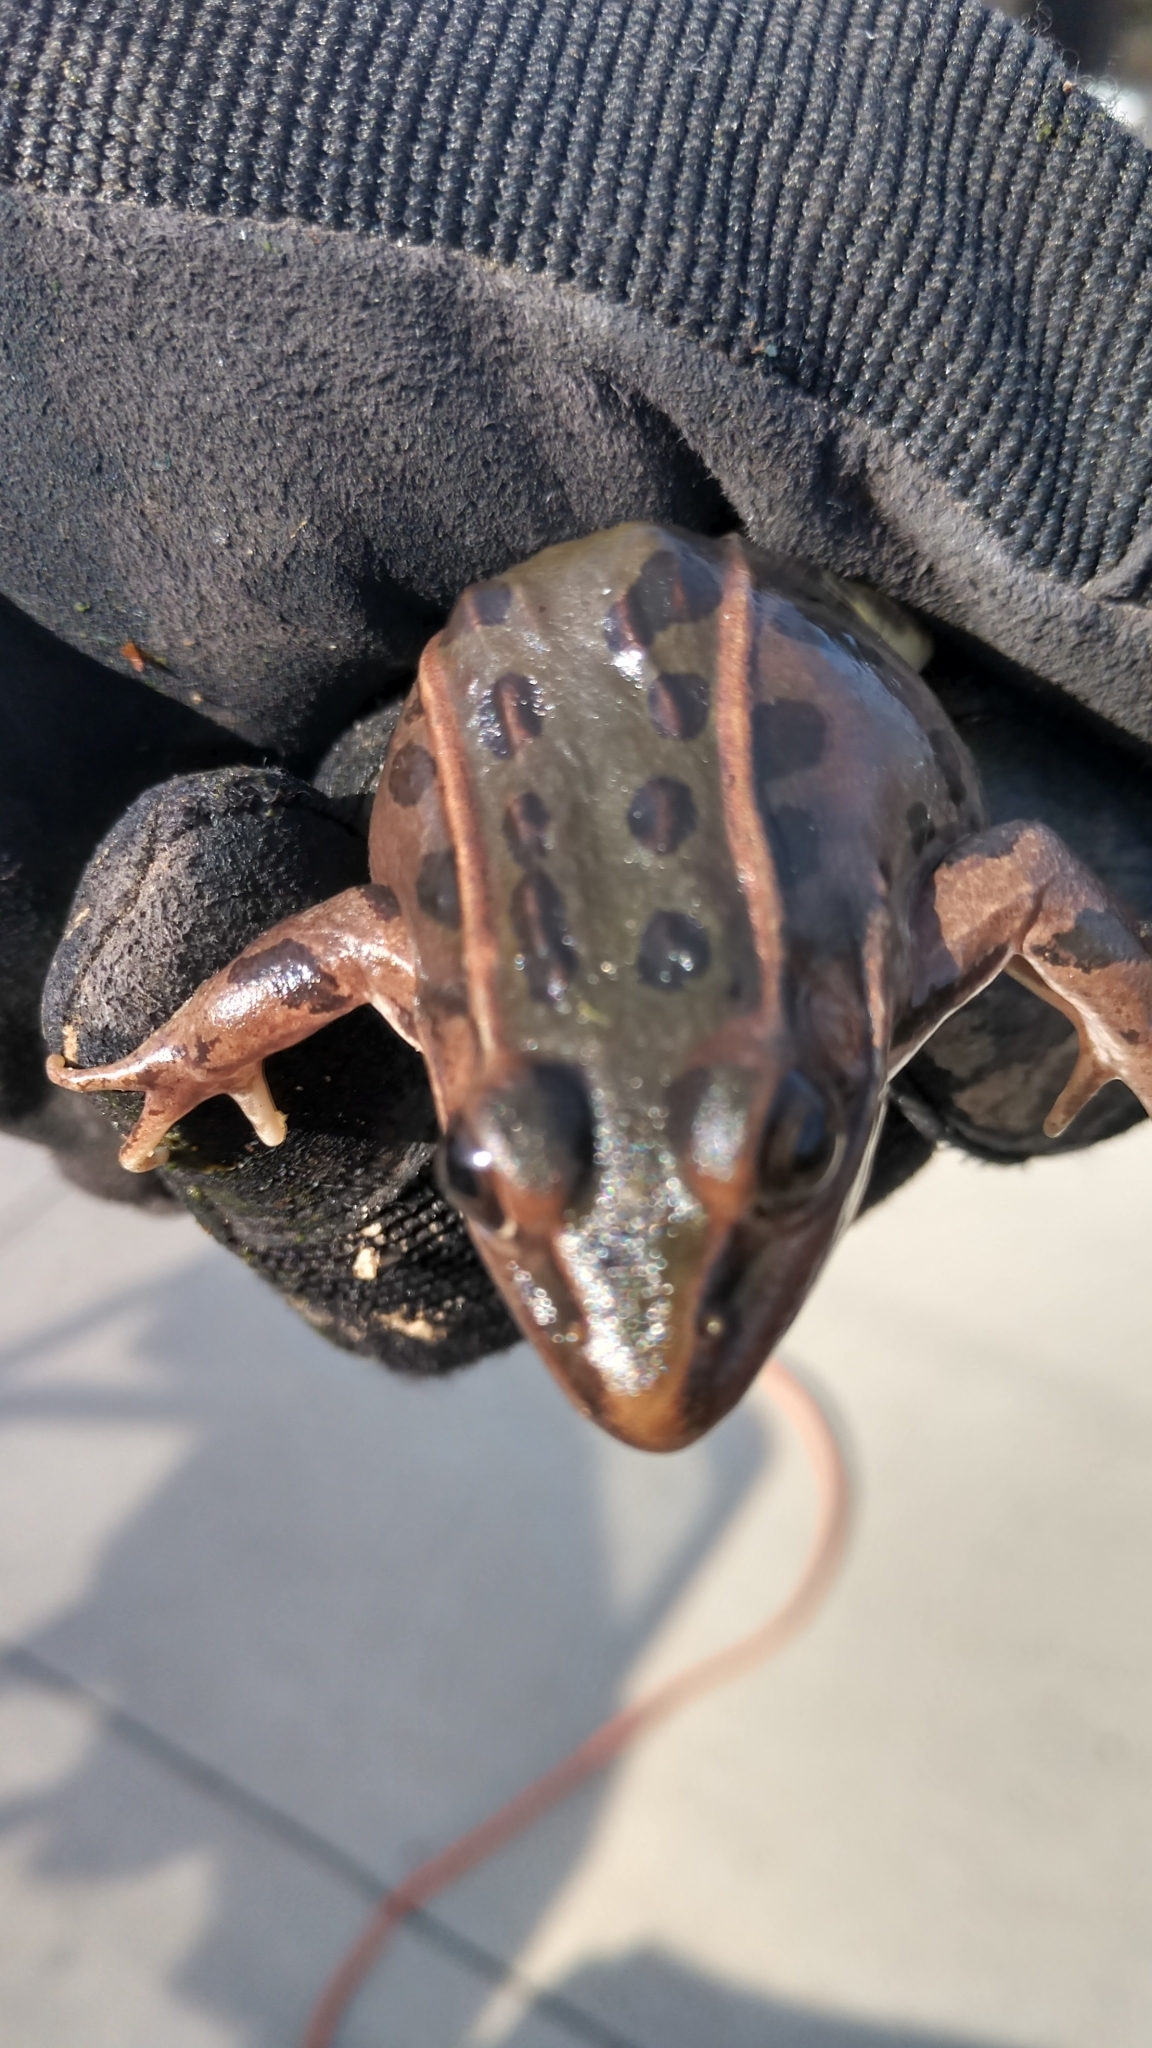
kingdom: Animalia
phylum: Chordata
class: Amphibia
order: Anura
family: Ranidae
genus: Lithobates
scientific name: Lithobates sphenocephalus
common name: Southern leopard frog
